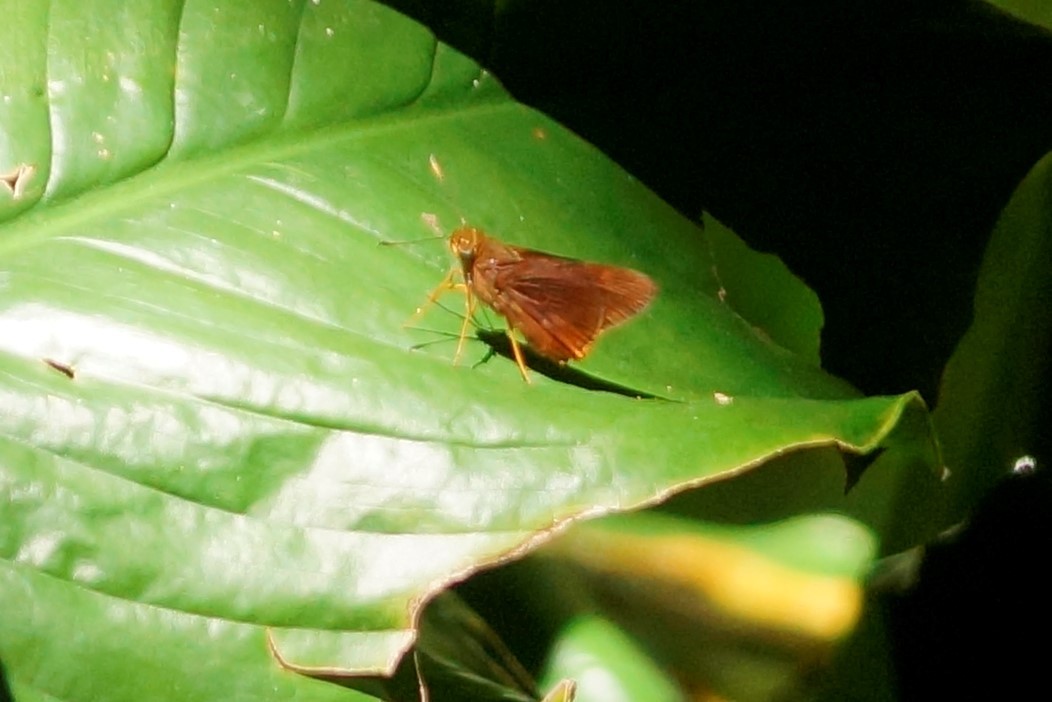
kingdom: Animalia
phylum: Arthropoda
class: Insecta
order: Lepidoptera
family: Hesperiidae
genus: Cephrenes
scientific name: Cephrenes augiades
